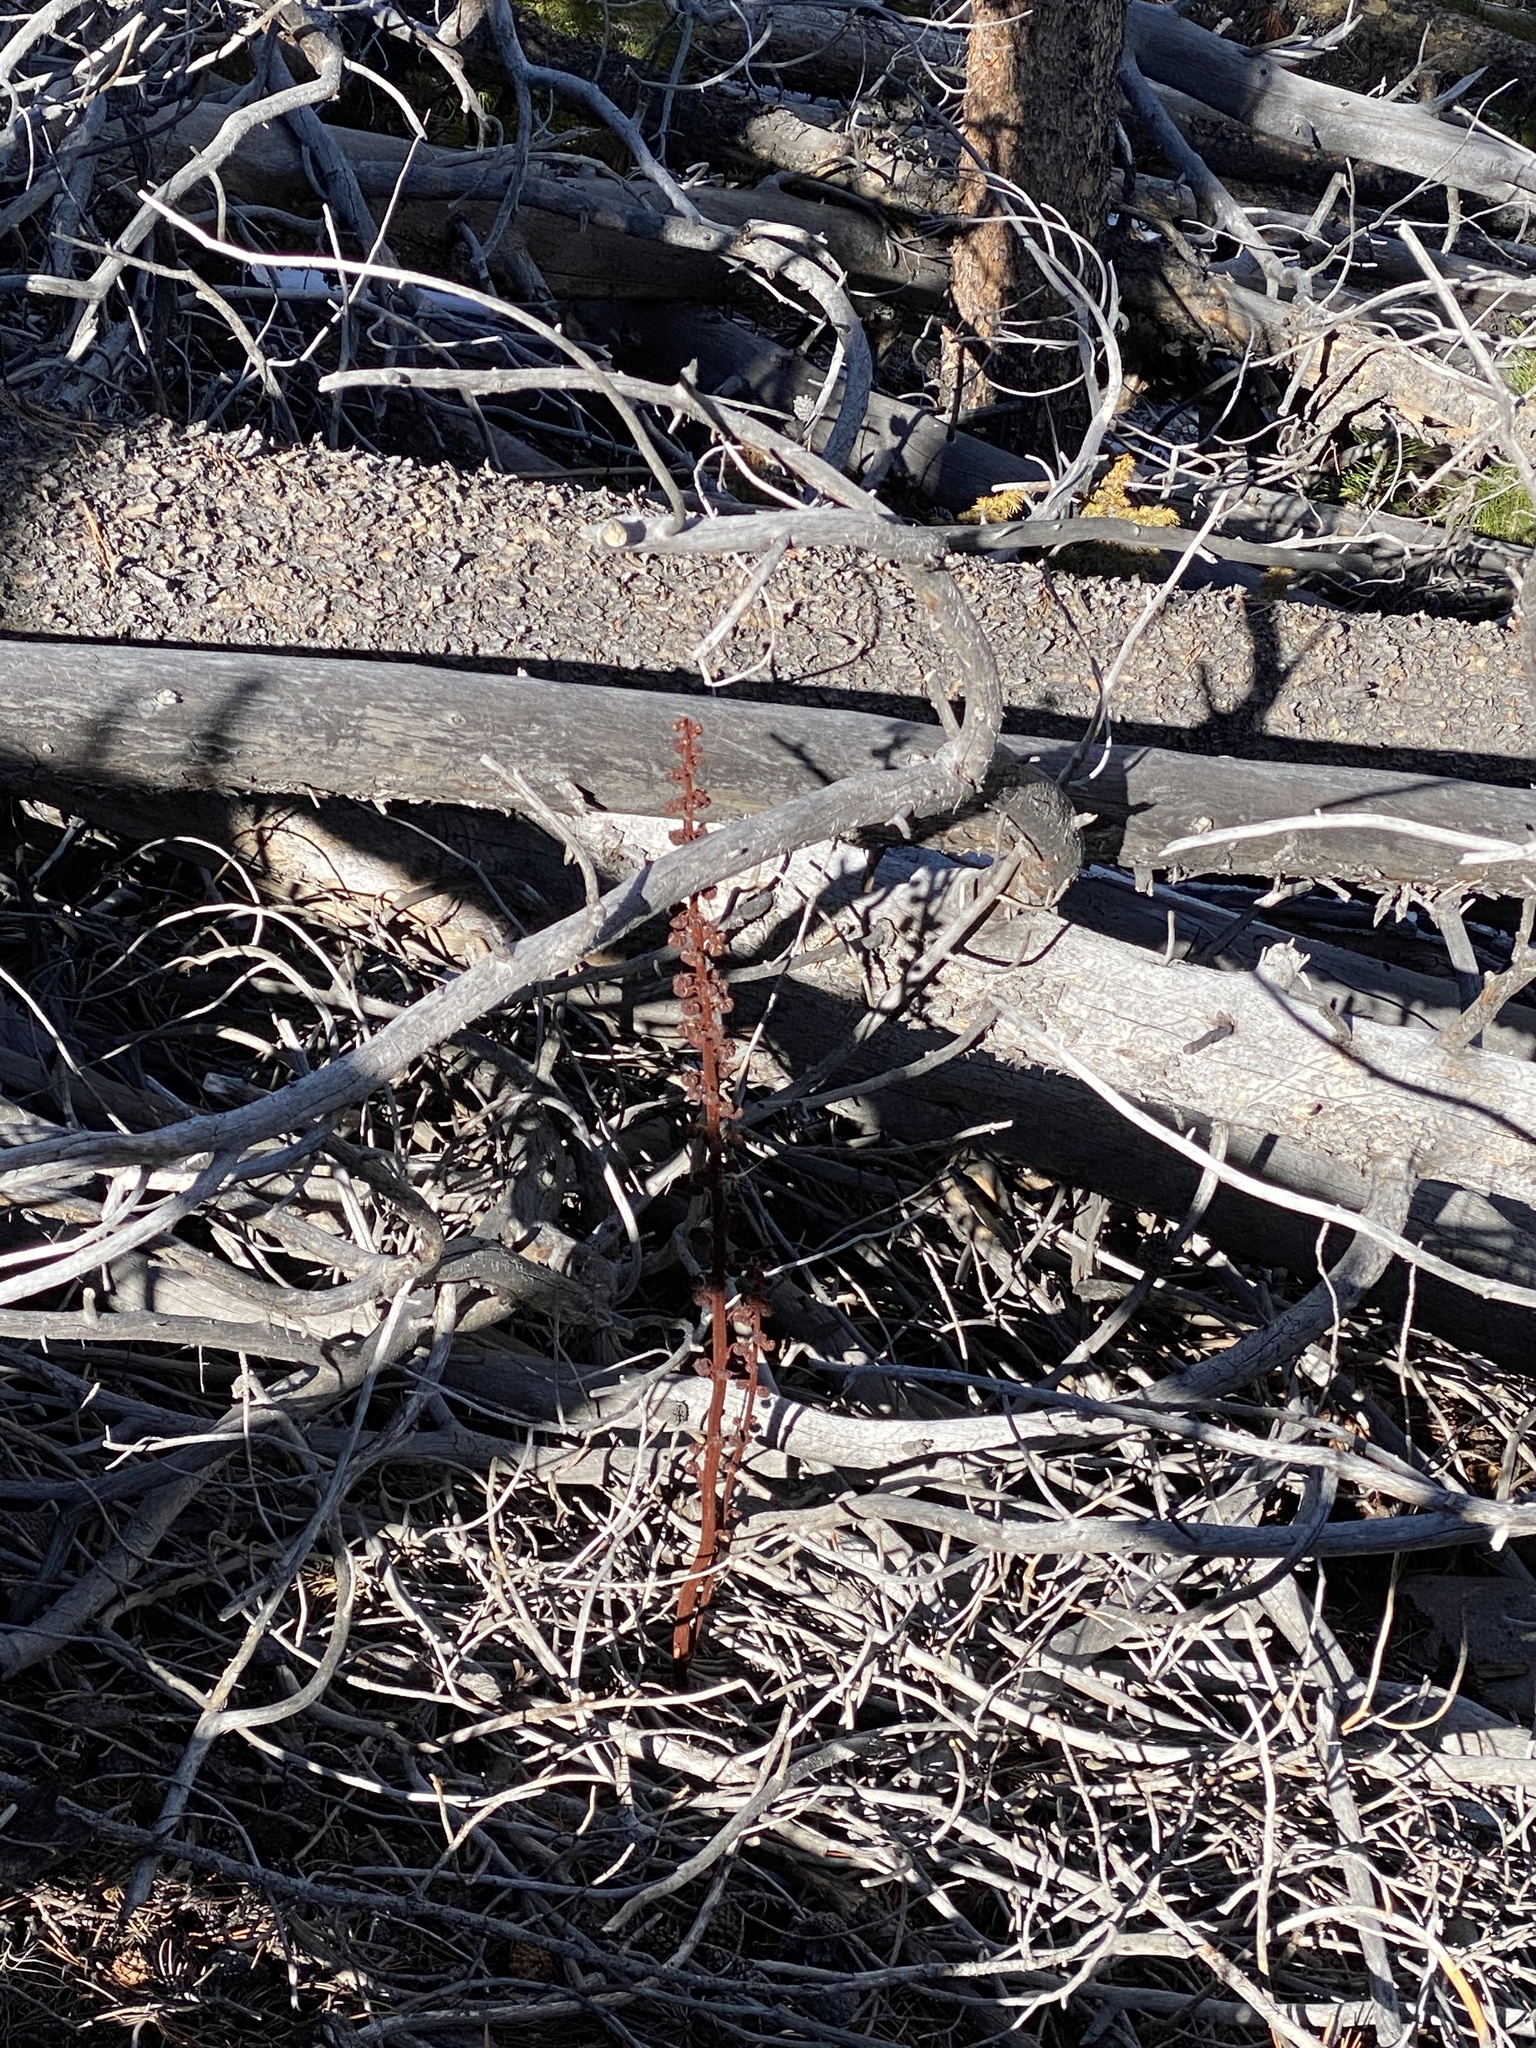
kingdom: Plantae
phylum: Tracheophyta
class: Magnoliopsida
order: Ericales
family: Ericaceae
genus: Pterospora
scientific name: Pterospora andromedea
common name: Giant bird's-nest
